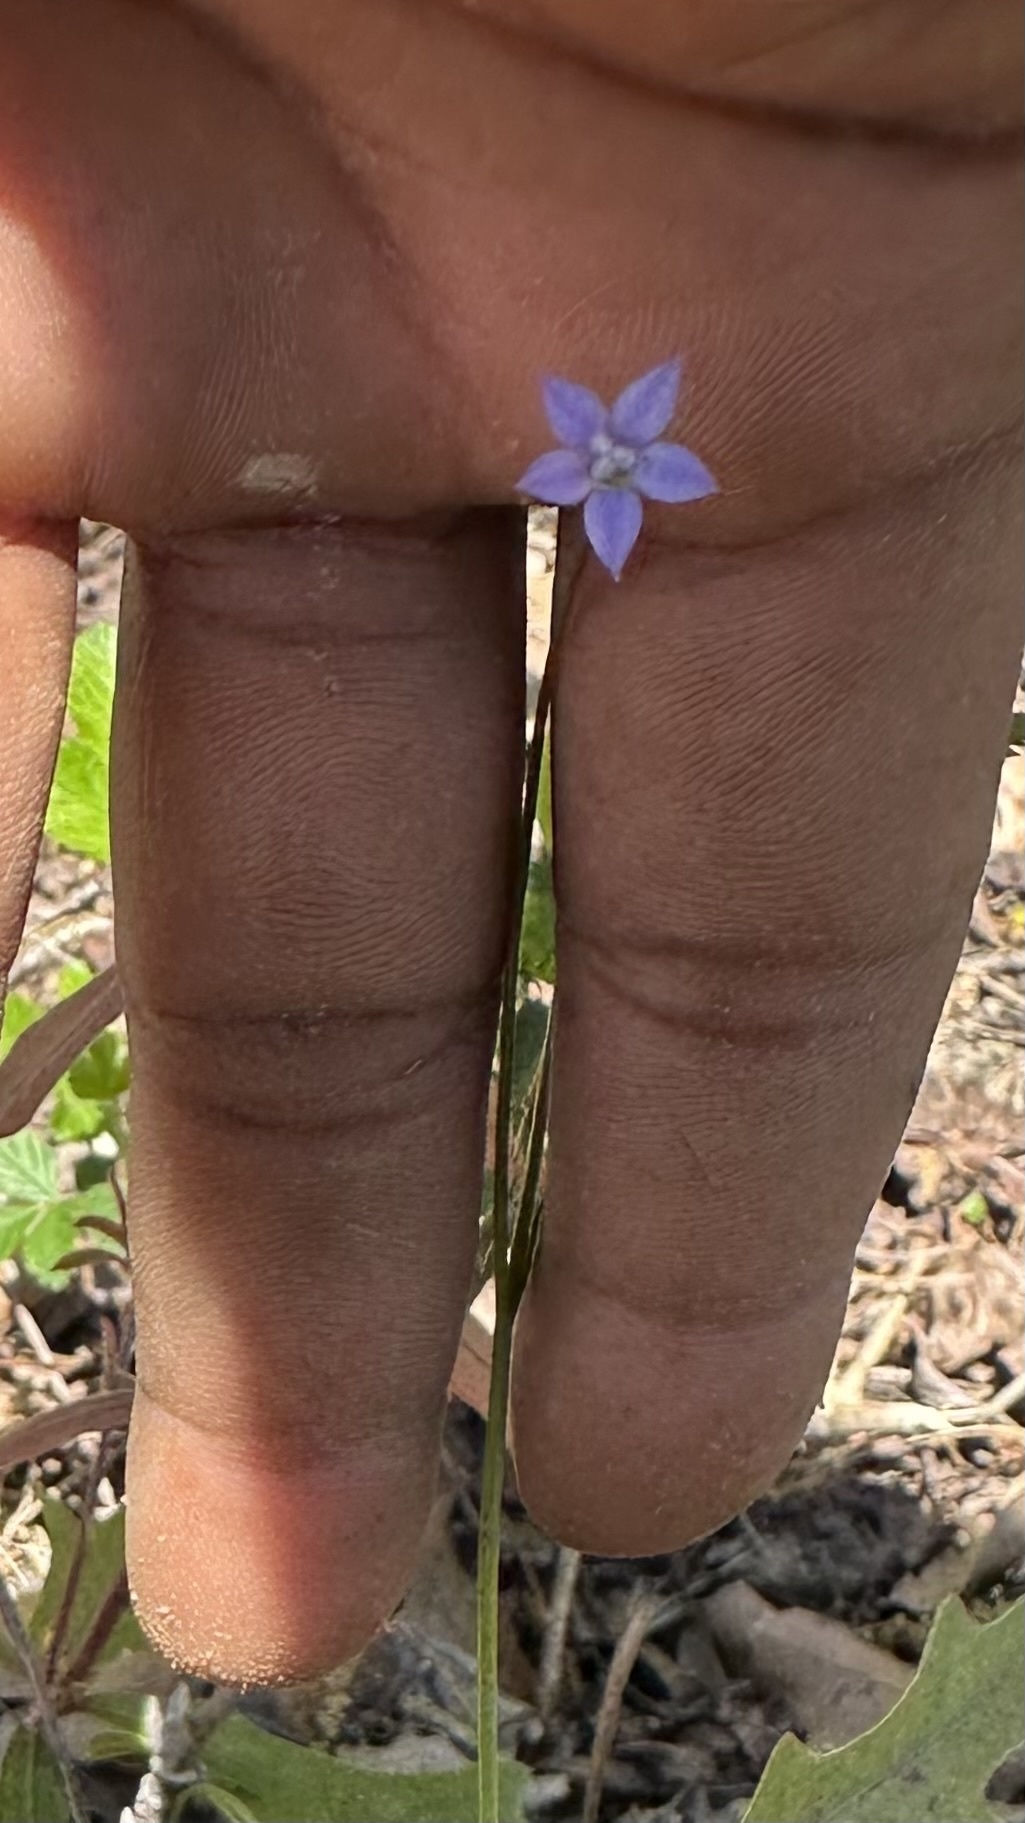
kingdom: Plantae
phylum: Tracheophyta
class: Magnoliopsida
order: Asterales
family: Campanulaceae
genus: Wahlenbergia
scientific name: Wahlenbergia marginata
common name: Southern rockbell
